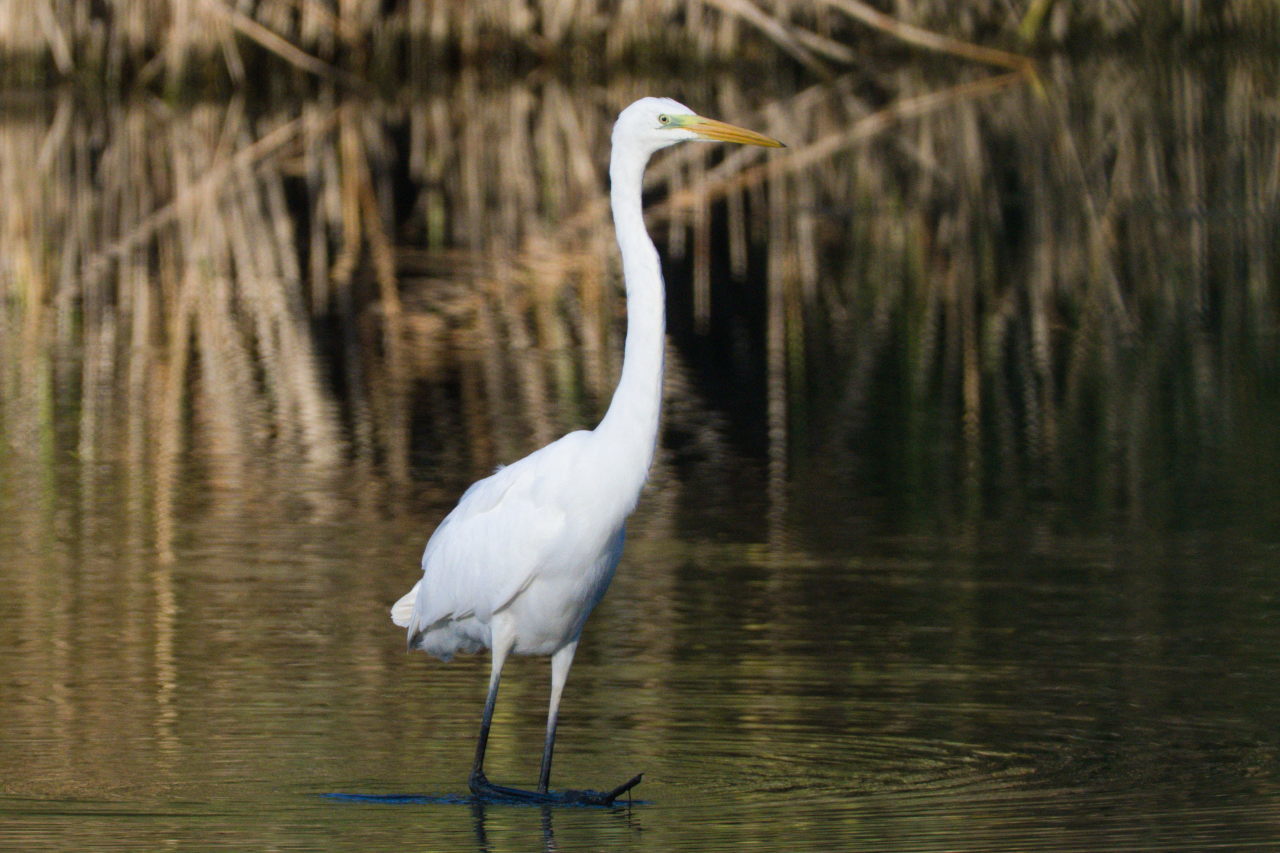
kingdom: Animalia
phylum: Chordata
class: Aves
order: Pelecaniformes
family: Ardeidae
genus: Ardea
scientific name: Ardea alba
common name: Great egret
